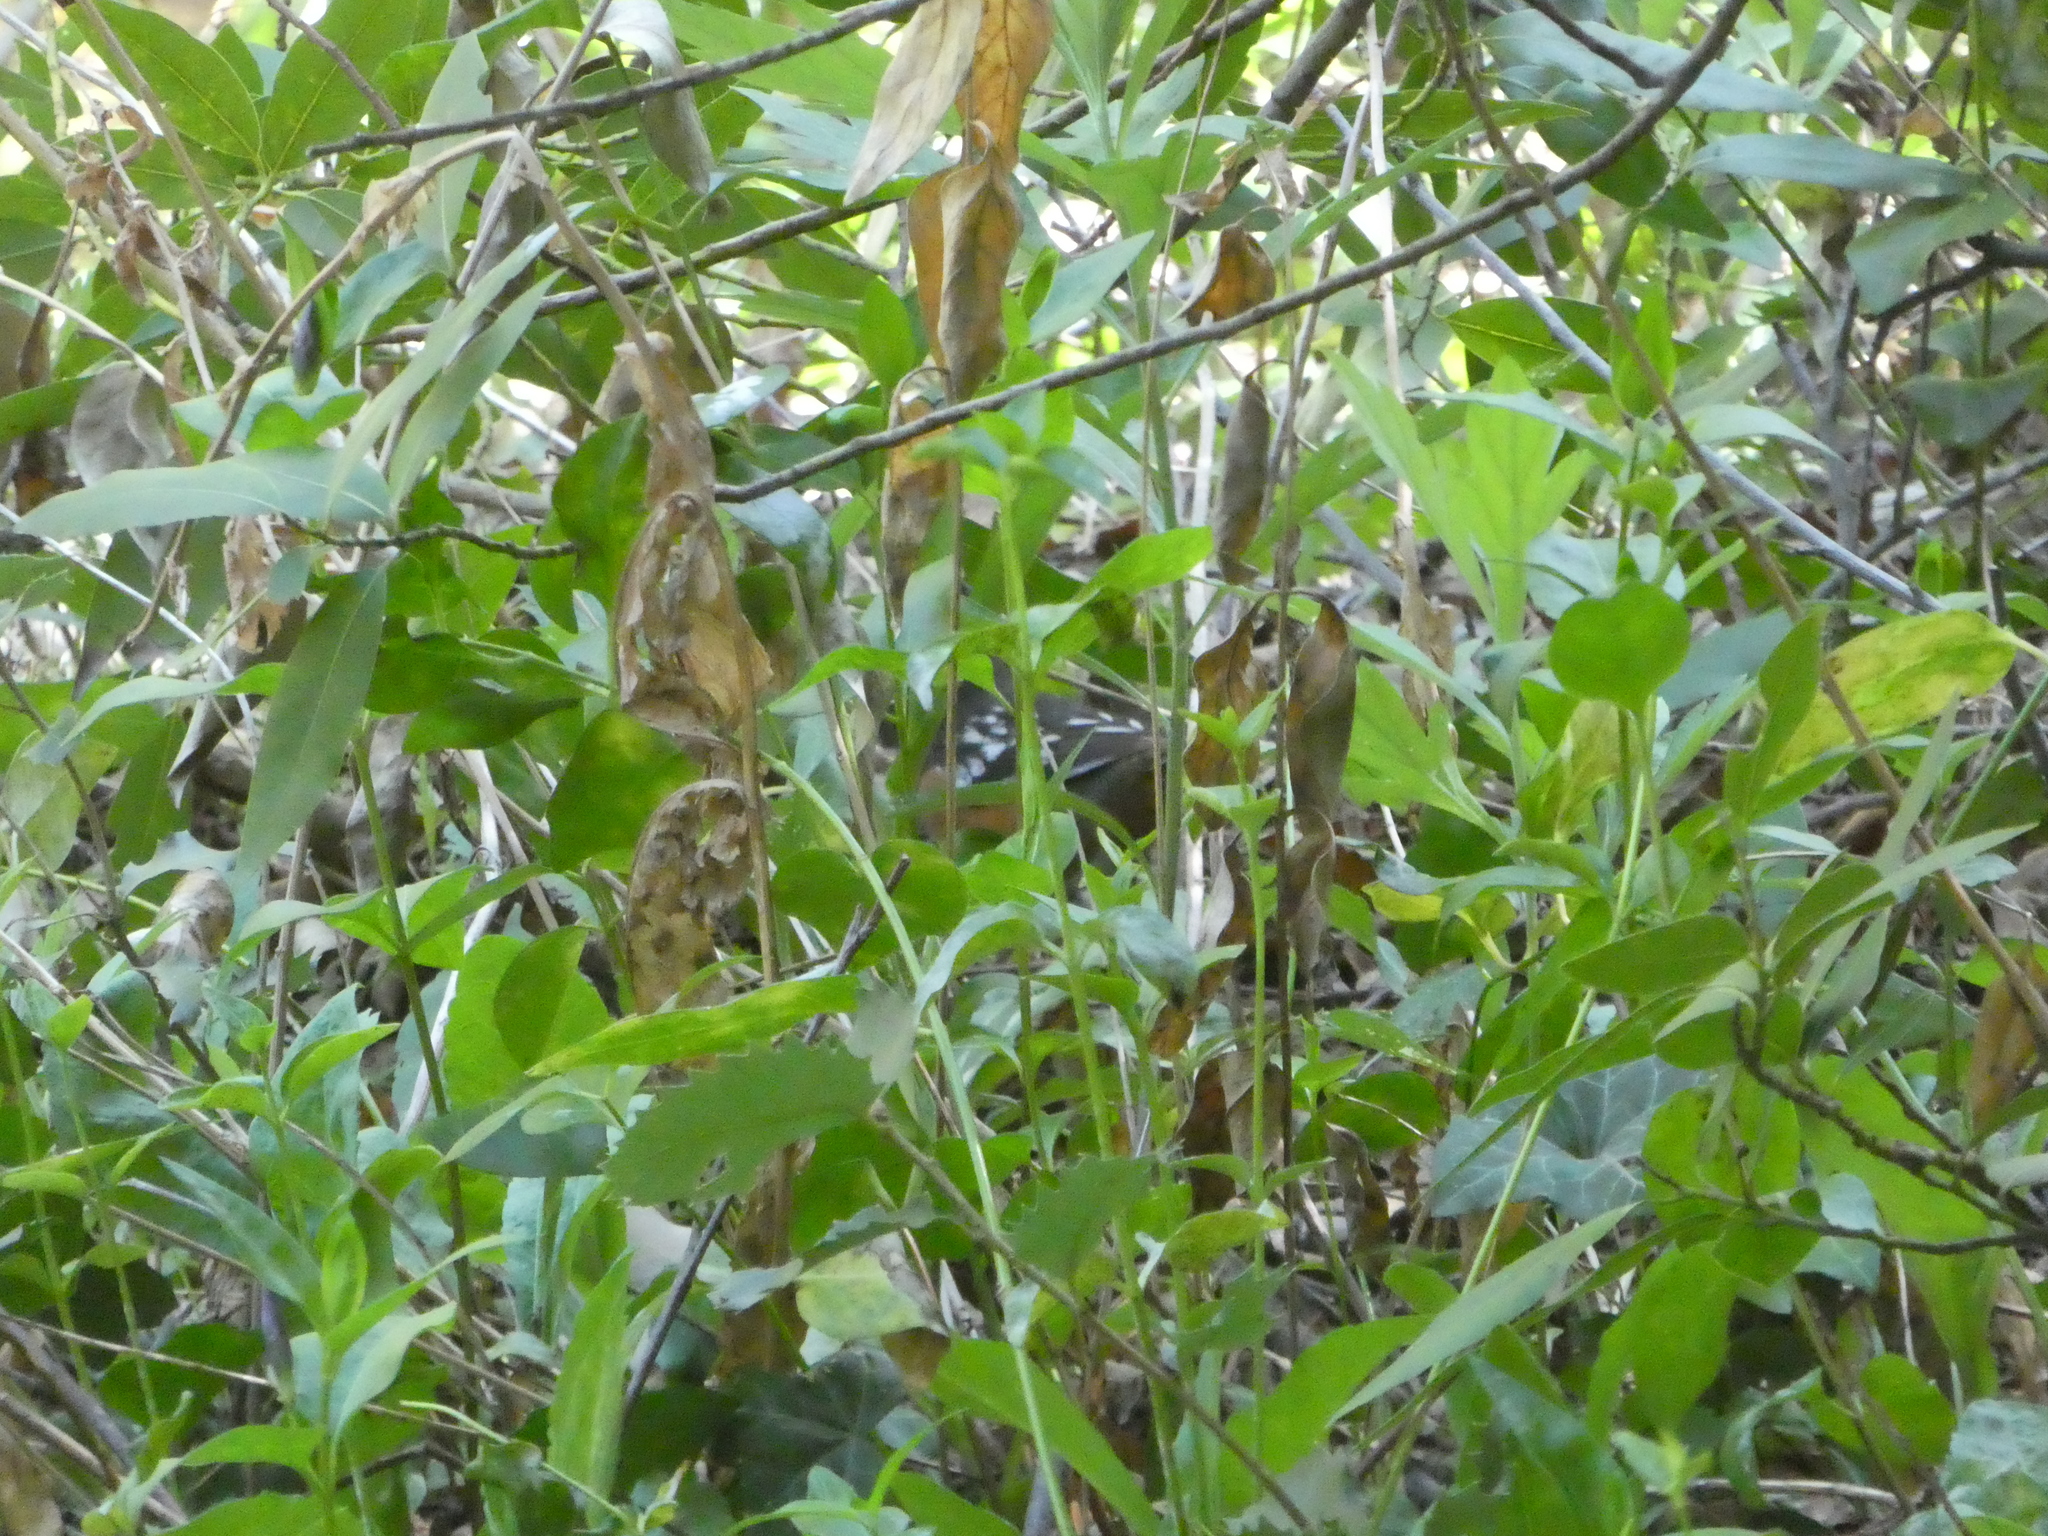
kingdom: Animalia
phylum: Chordata
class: Aves
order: Passeriformes
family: Passerellidae
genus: Pipilo
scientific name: Pipilo maculatus
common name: Spotted towhee
